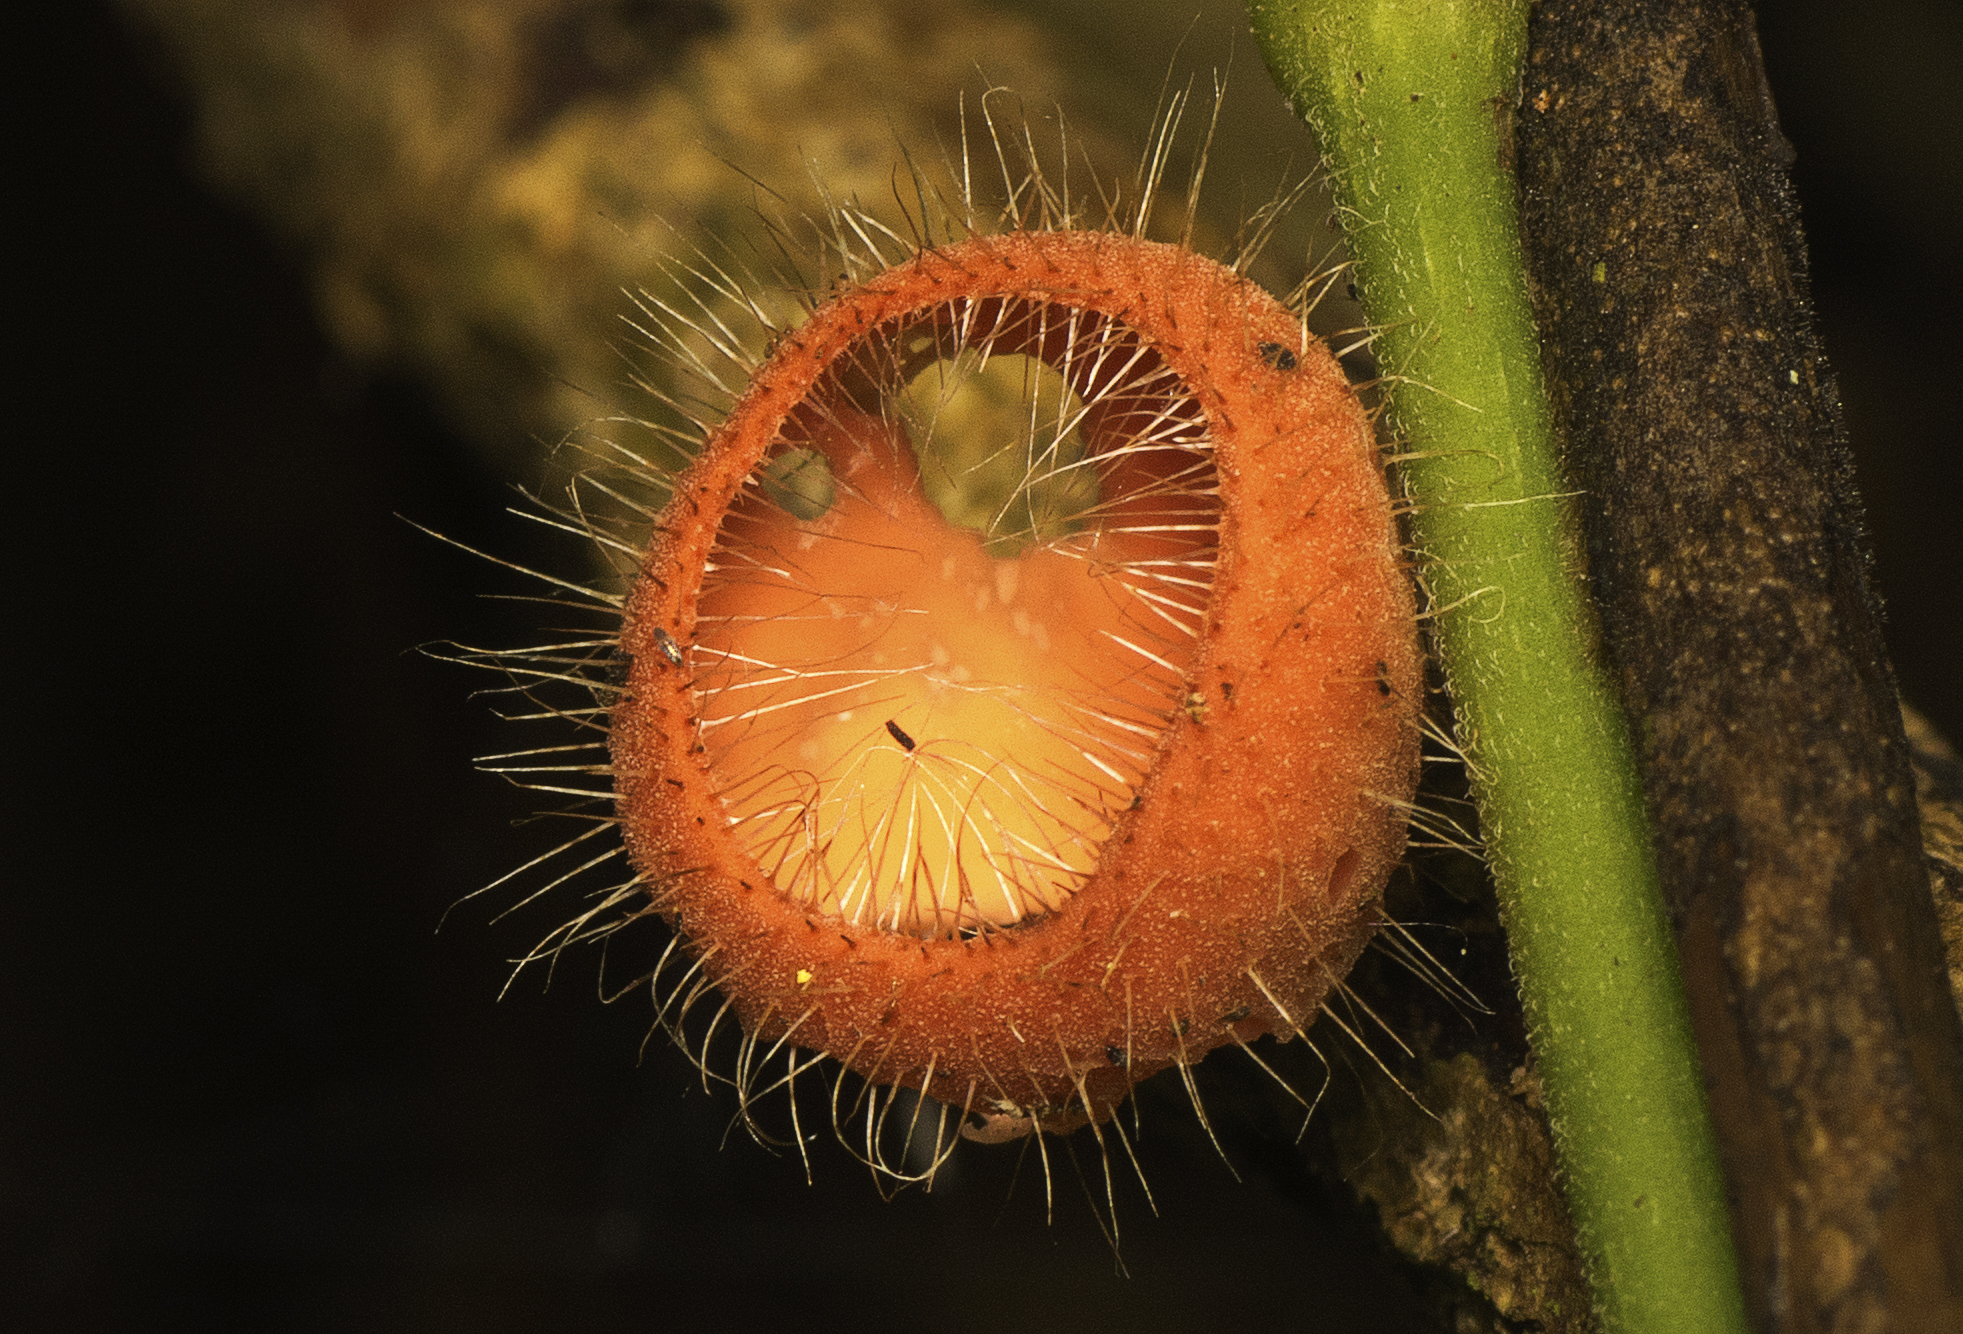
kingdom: Fungi
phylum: Ascomycota
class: Pezizomycetes
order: Pezizales
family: Sarcoscyphaceae
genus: Cookeina
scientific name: Cookeina tricholoma
